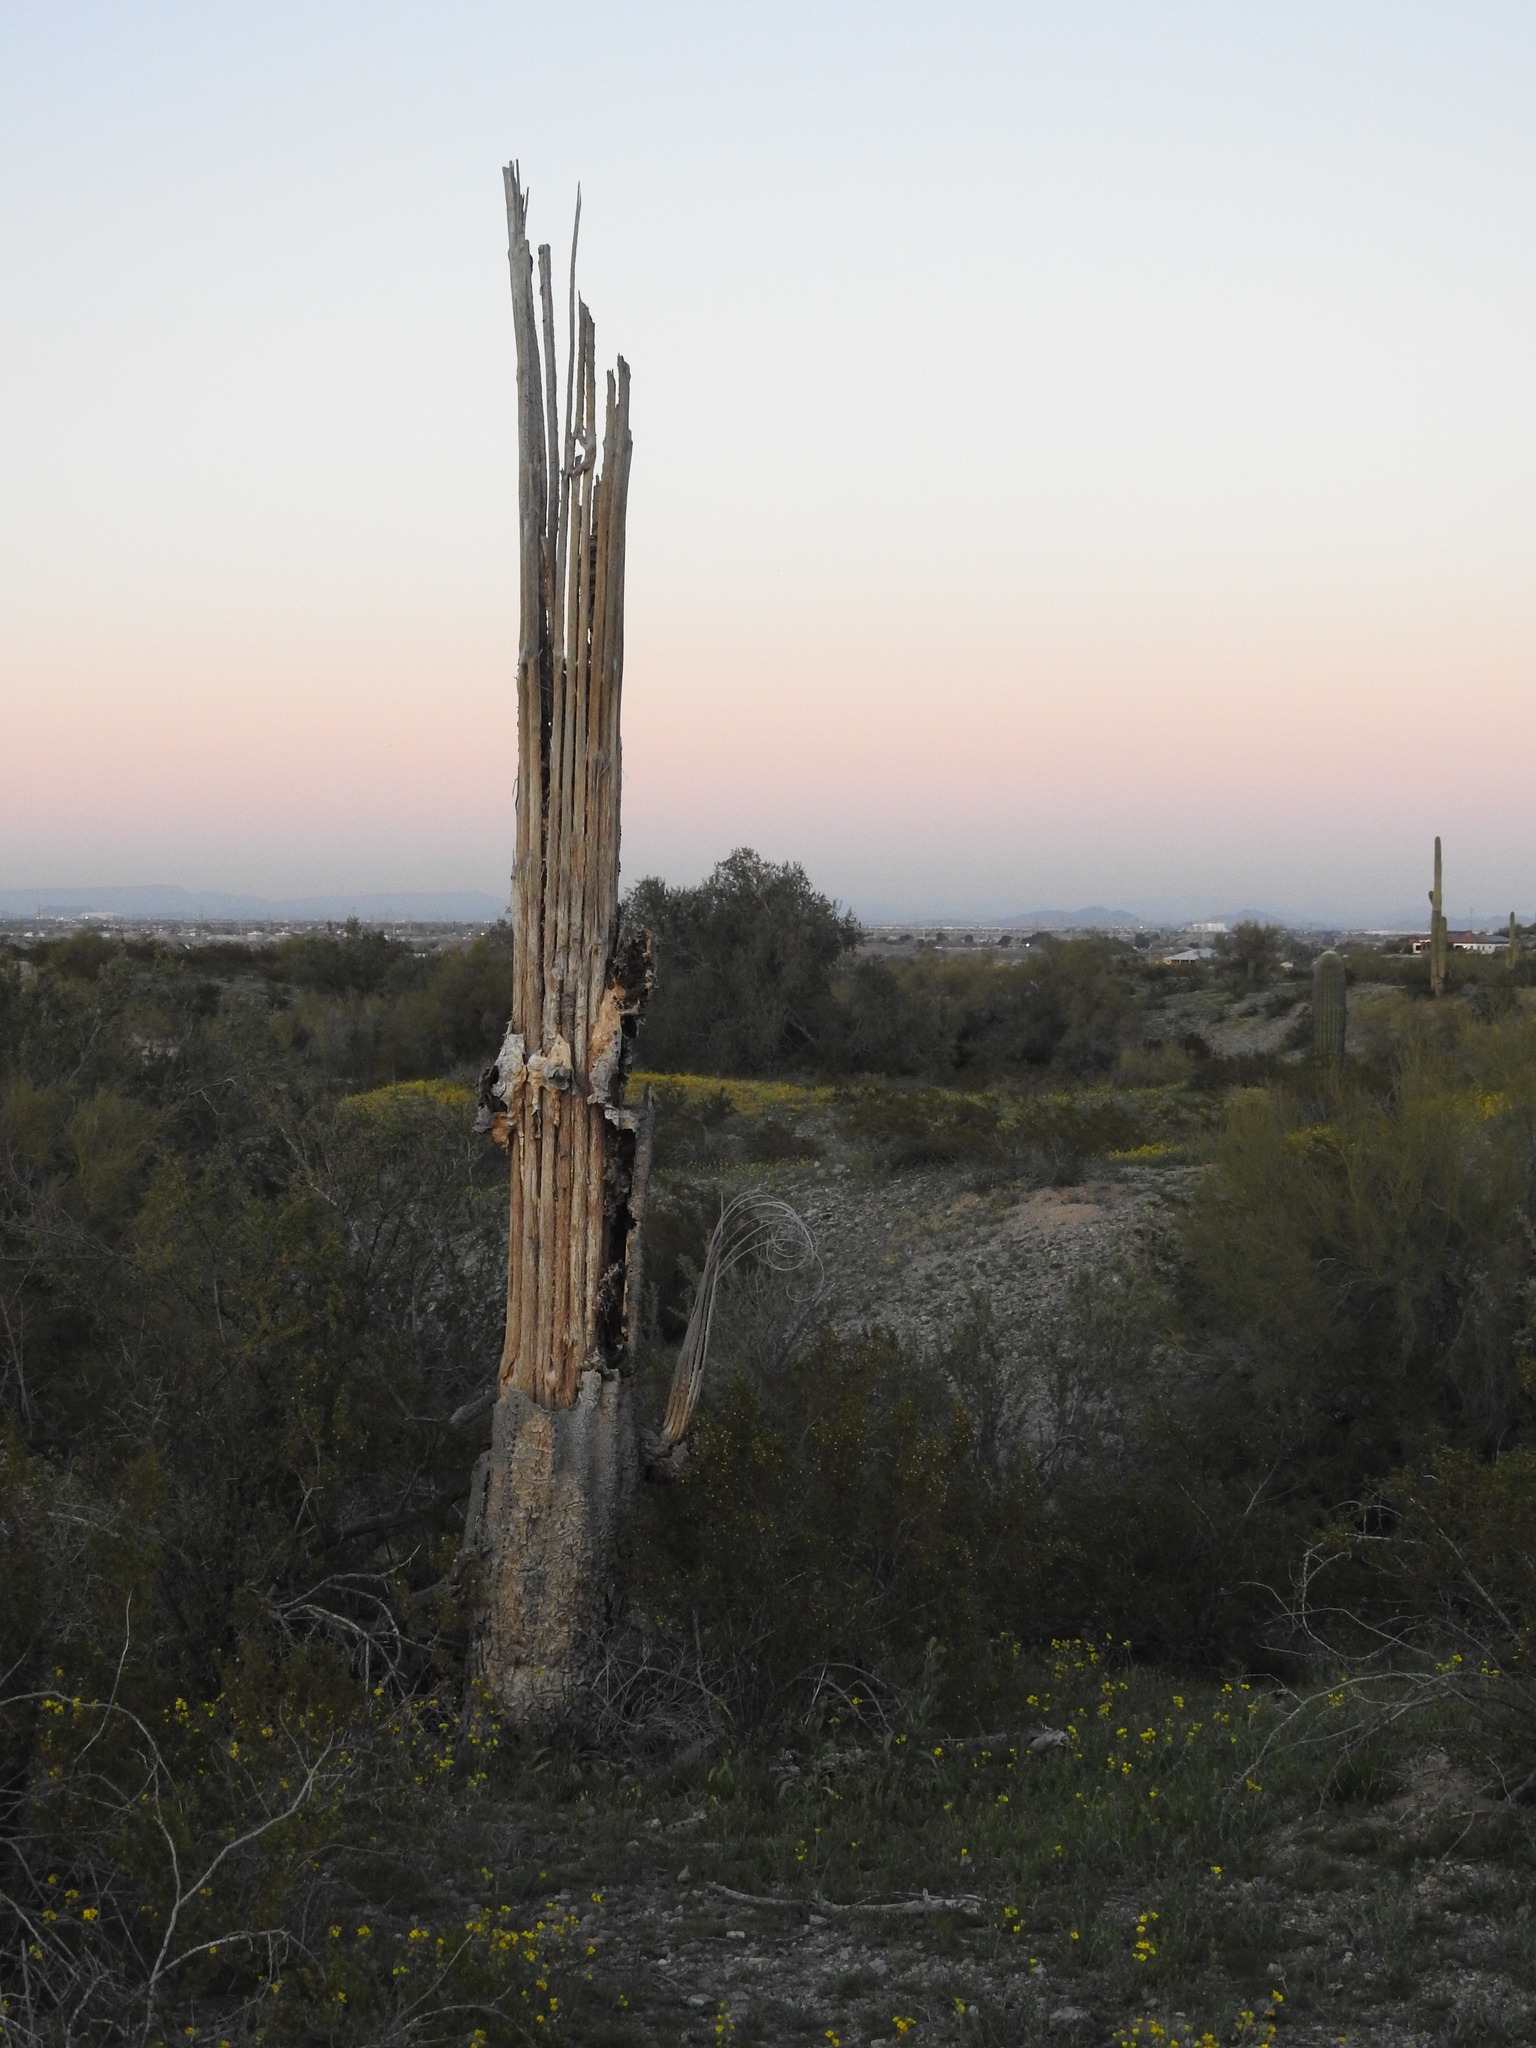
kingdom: Plantae
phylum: Tracheophyta
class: Magnoliopsida
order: Caryophyllales
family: Cactaceae
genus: Carnegiea
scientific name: Carnegiea gigantea
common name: Saguaro
